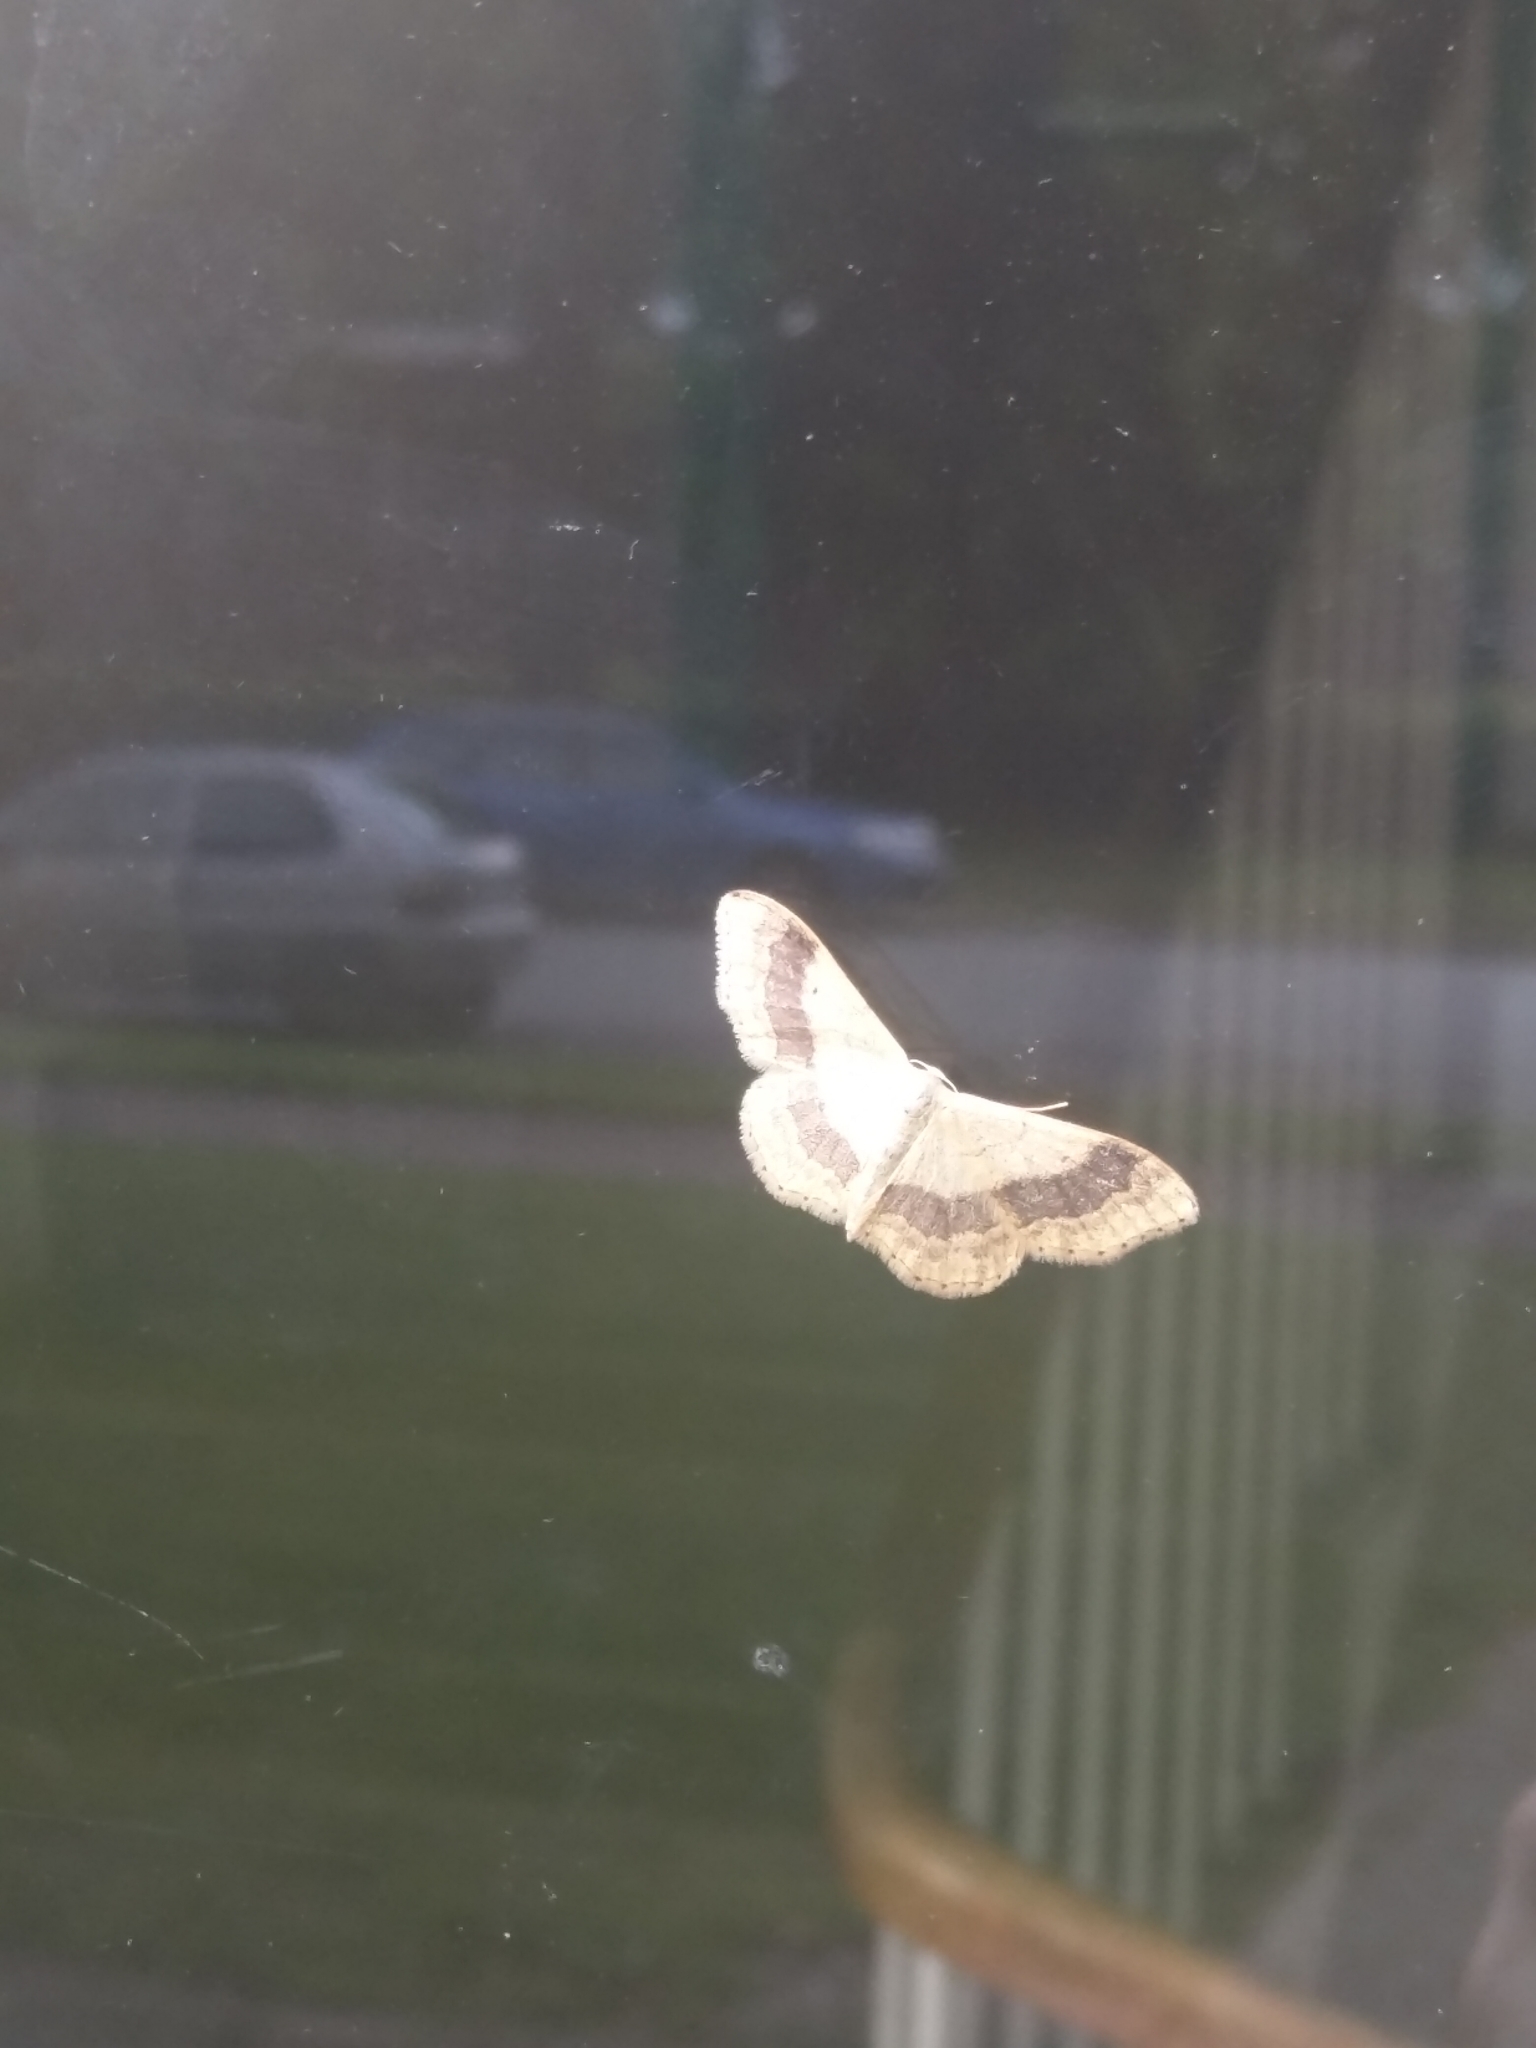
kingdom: Animalia
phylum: Arthropoda
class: Insecta
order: Lepidoptera
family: Geometridae
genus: Idaea
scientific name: Idaea aversata
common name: Riband wave
